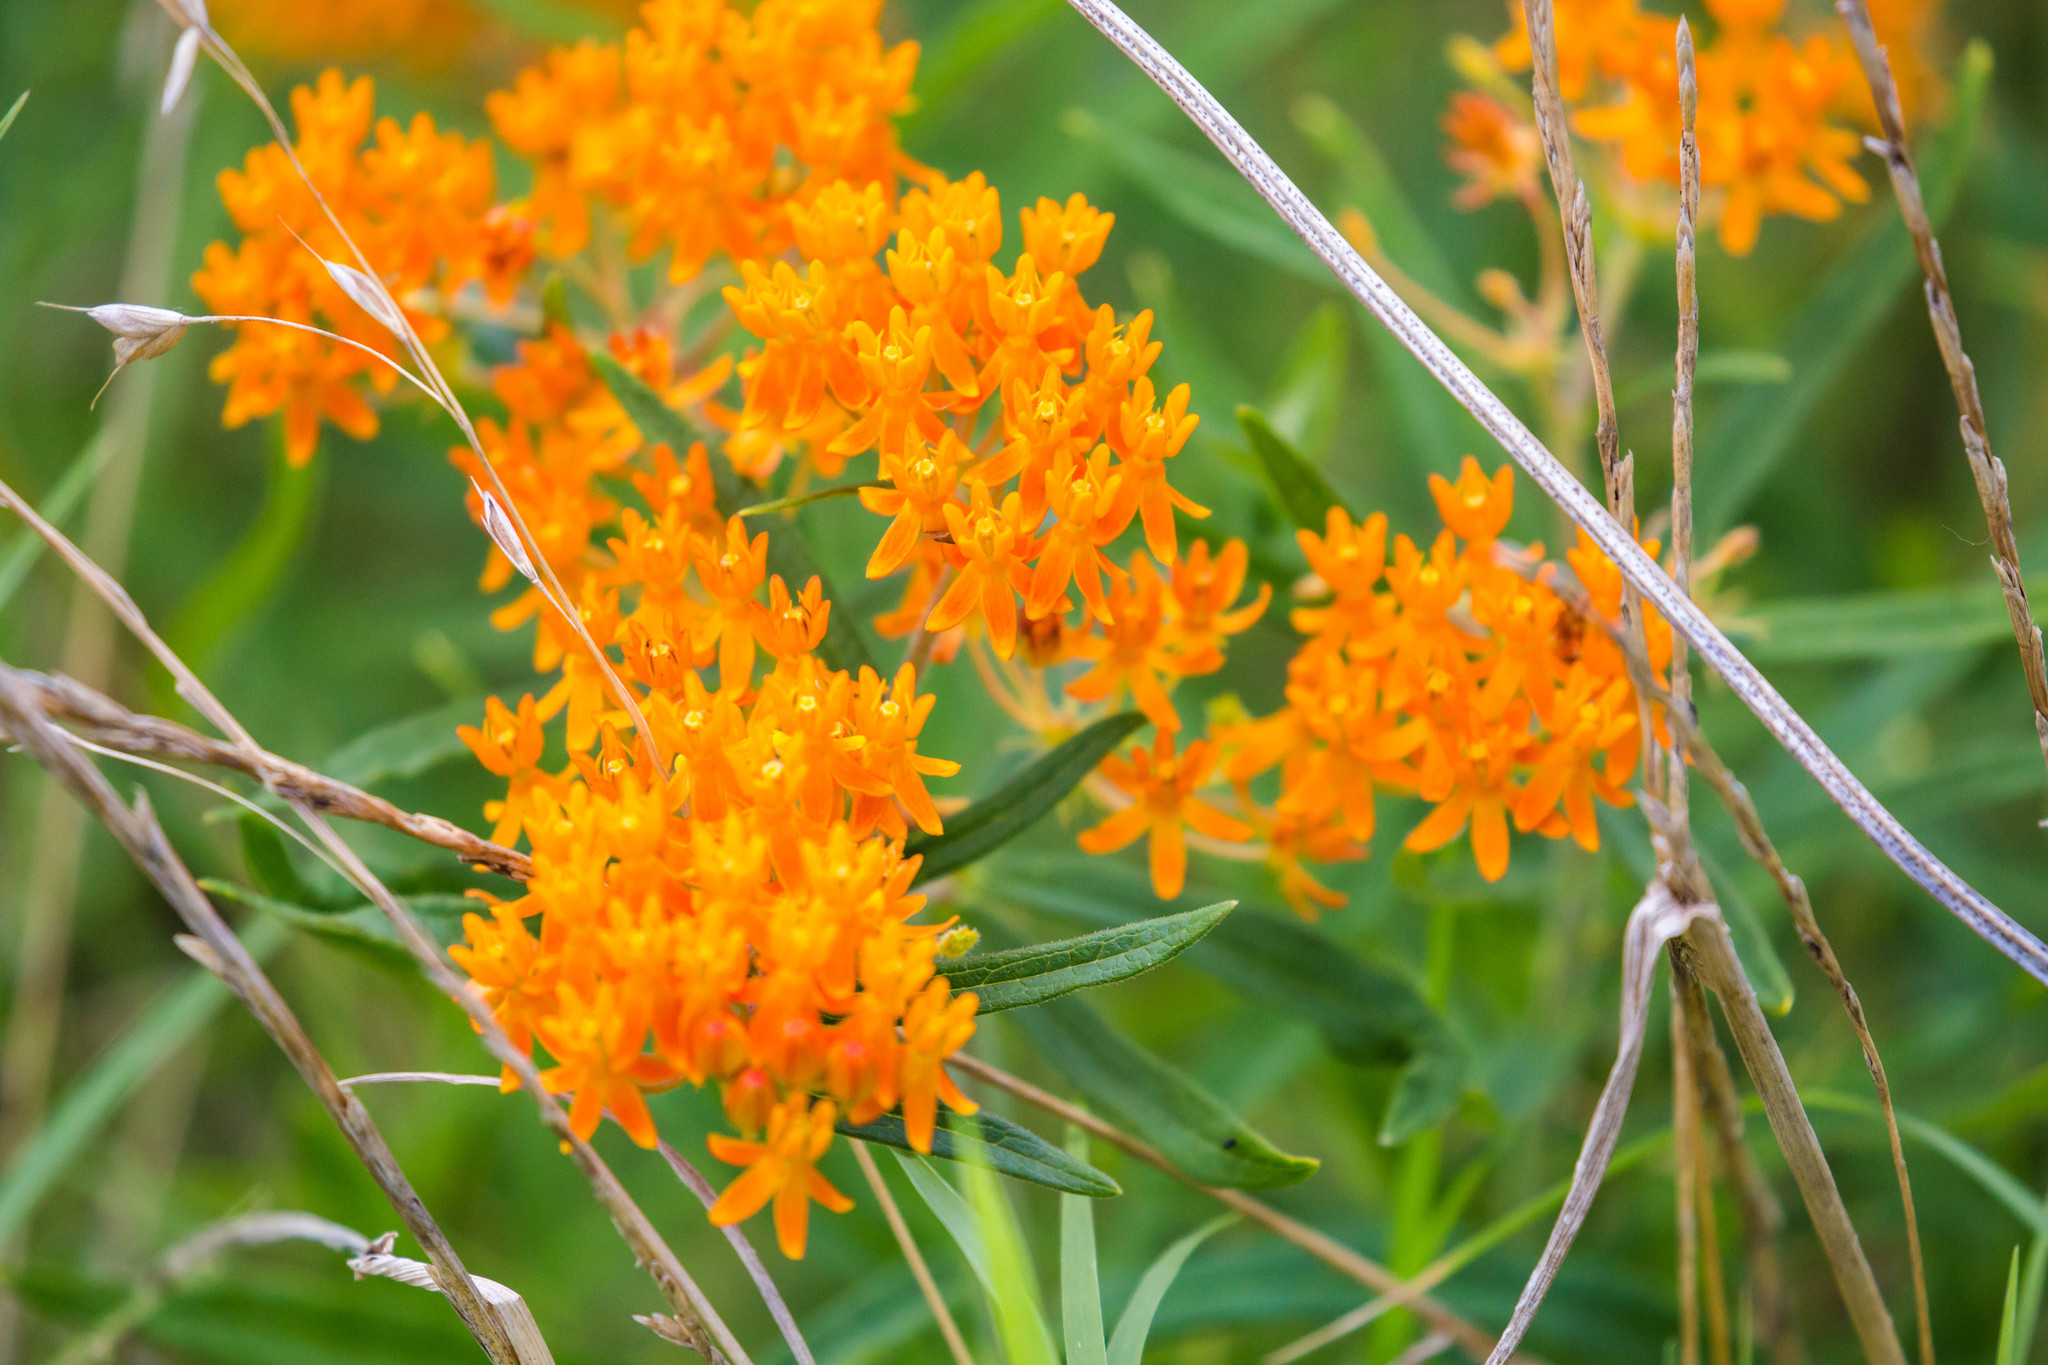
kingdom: Plantae
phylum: Tracheophyta
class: Magnoliopsida
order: Gentianales
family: Apocynaceae
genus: Asclepias
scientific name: Asclepias tuberosa
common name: Butterfly milkweed
